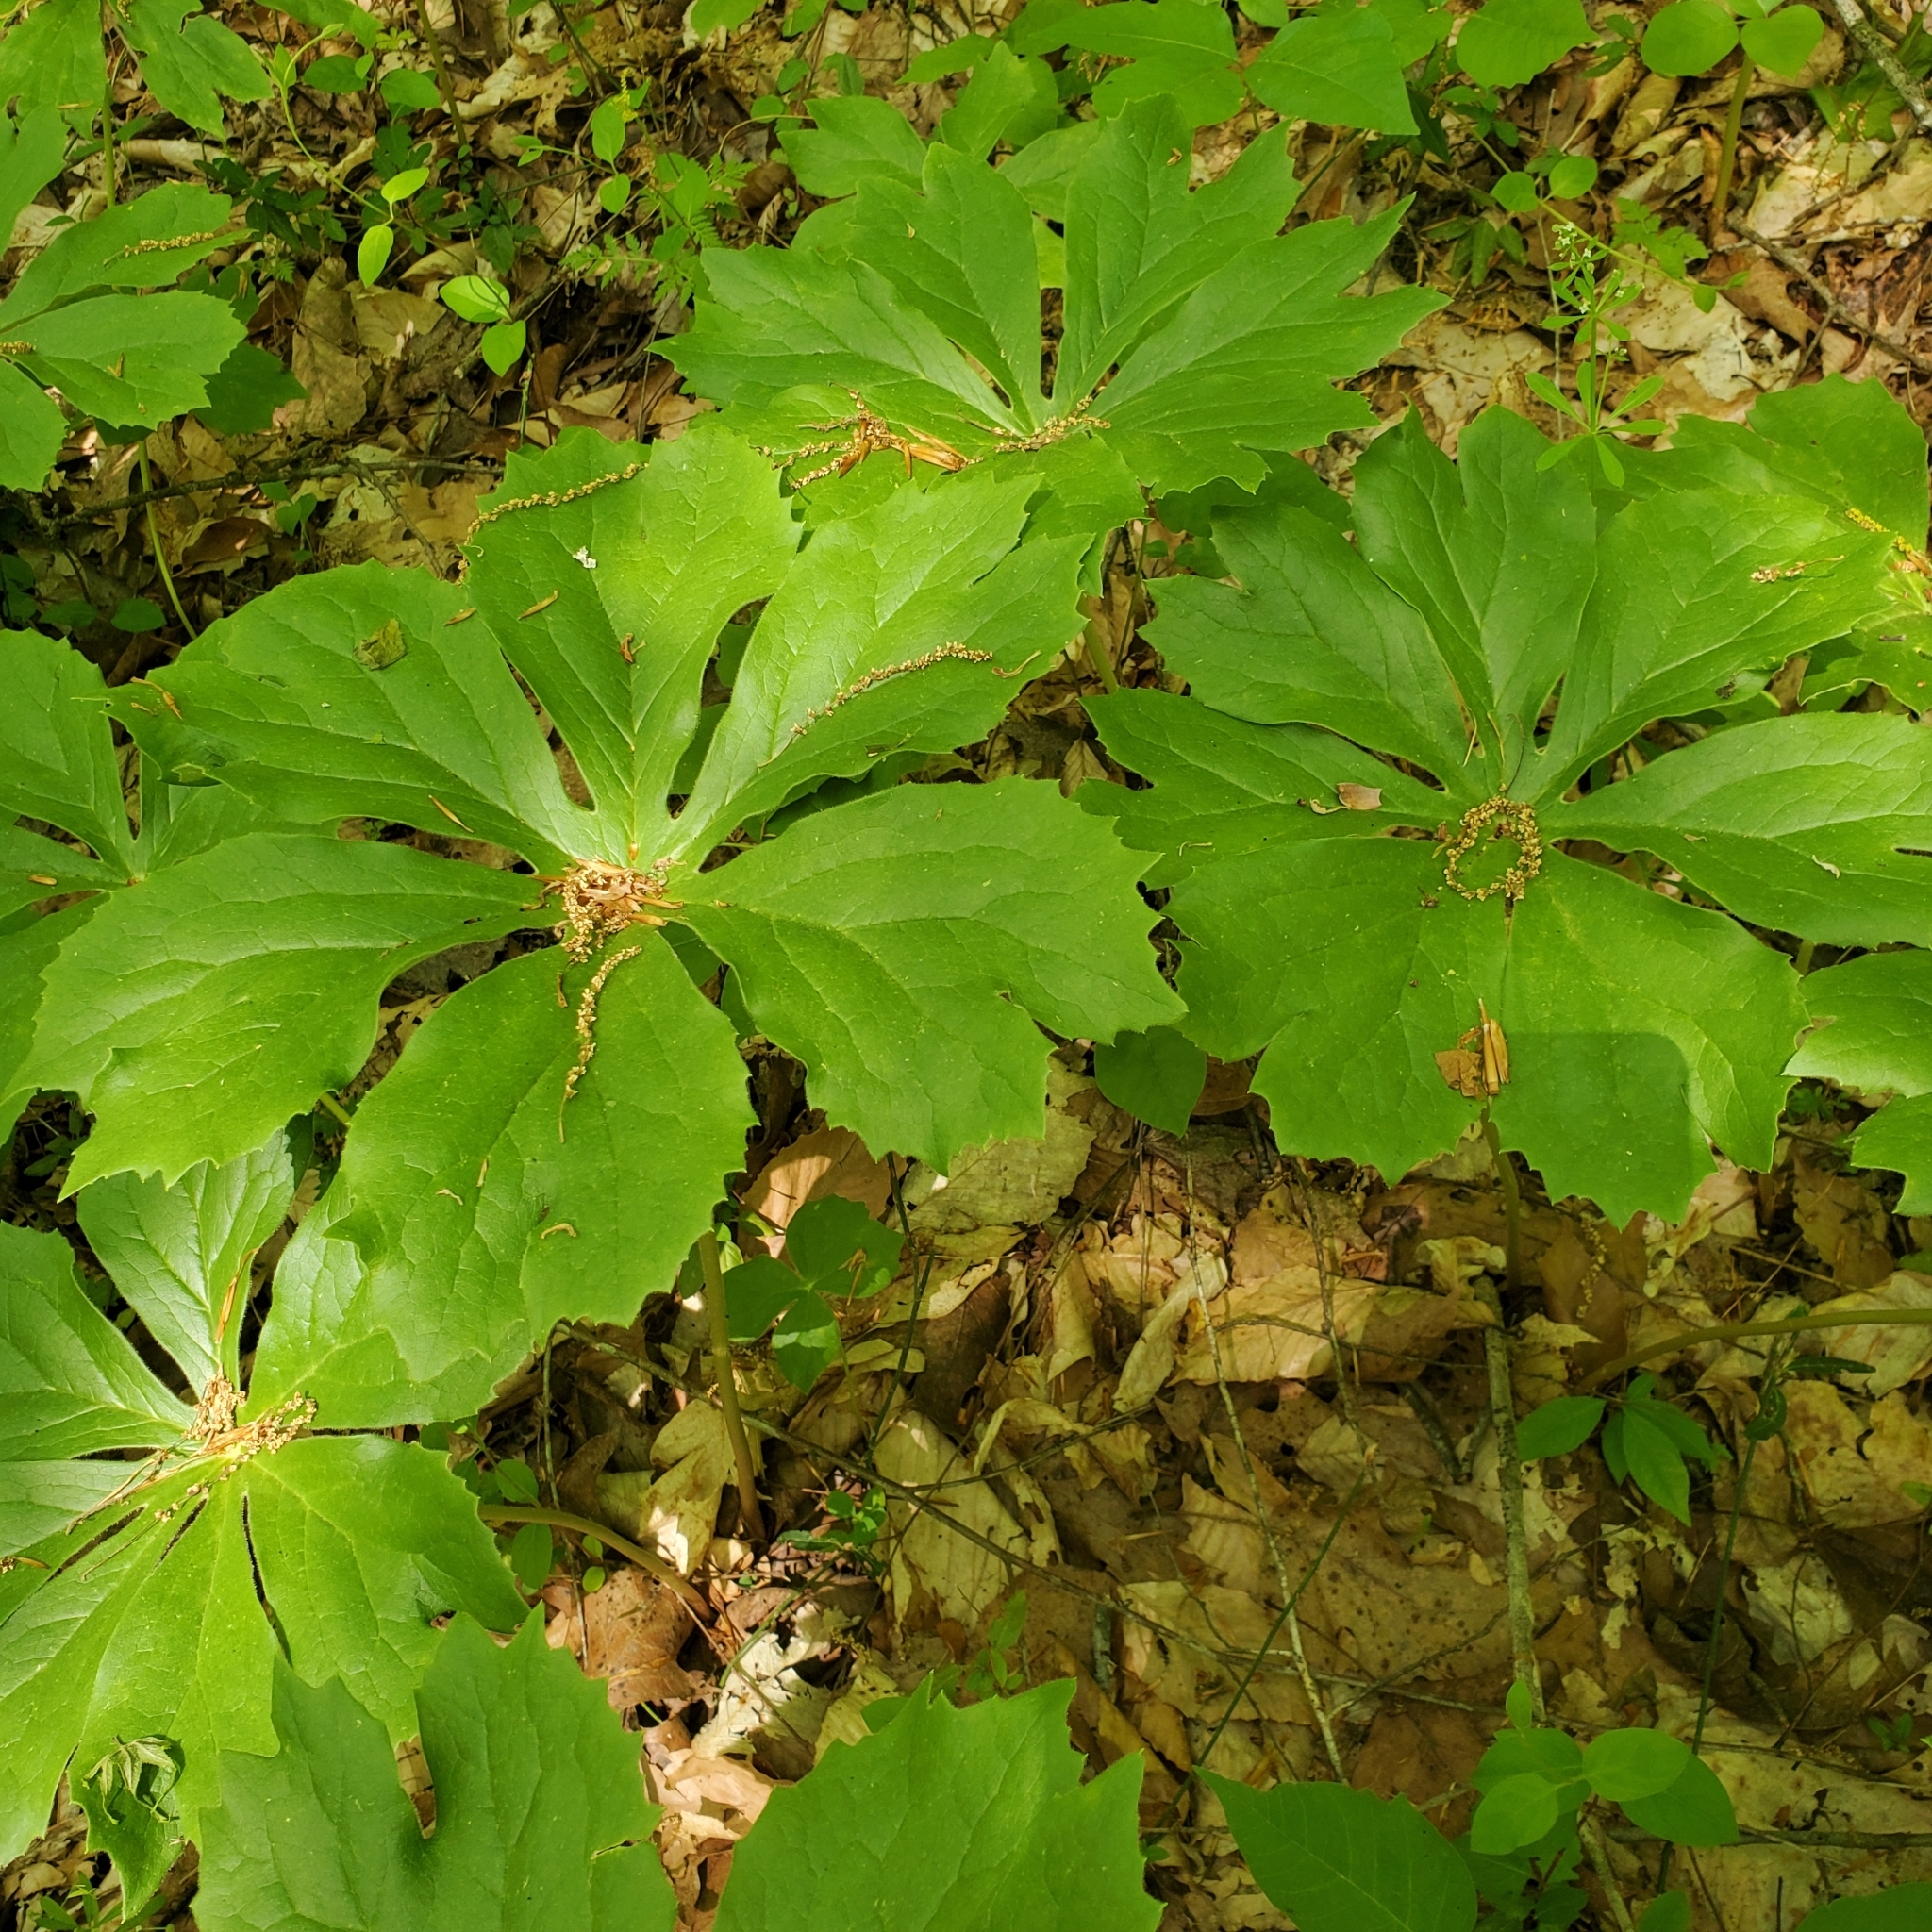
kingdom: Plantae
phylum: Tracheophyta
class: Magnoliopsida
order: Ranunculales
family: Berberidaceae
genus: Podophyllum
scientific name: Podophyllum peltatum
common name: Wild mandrake
